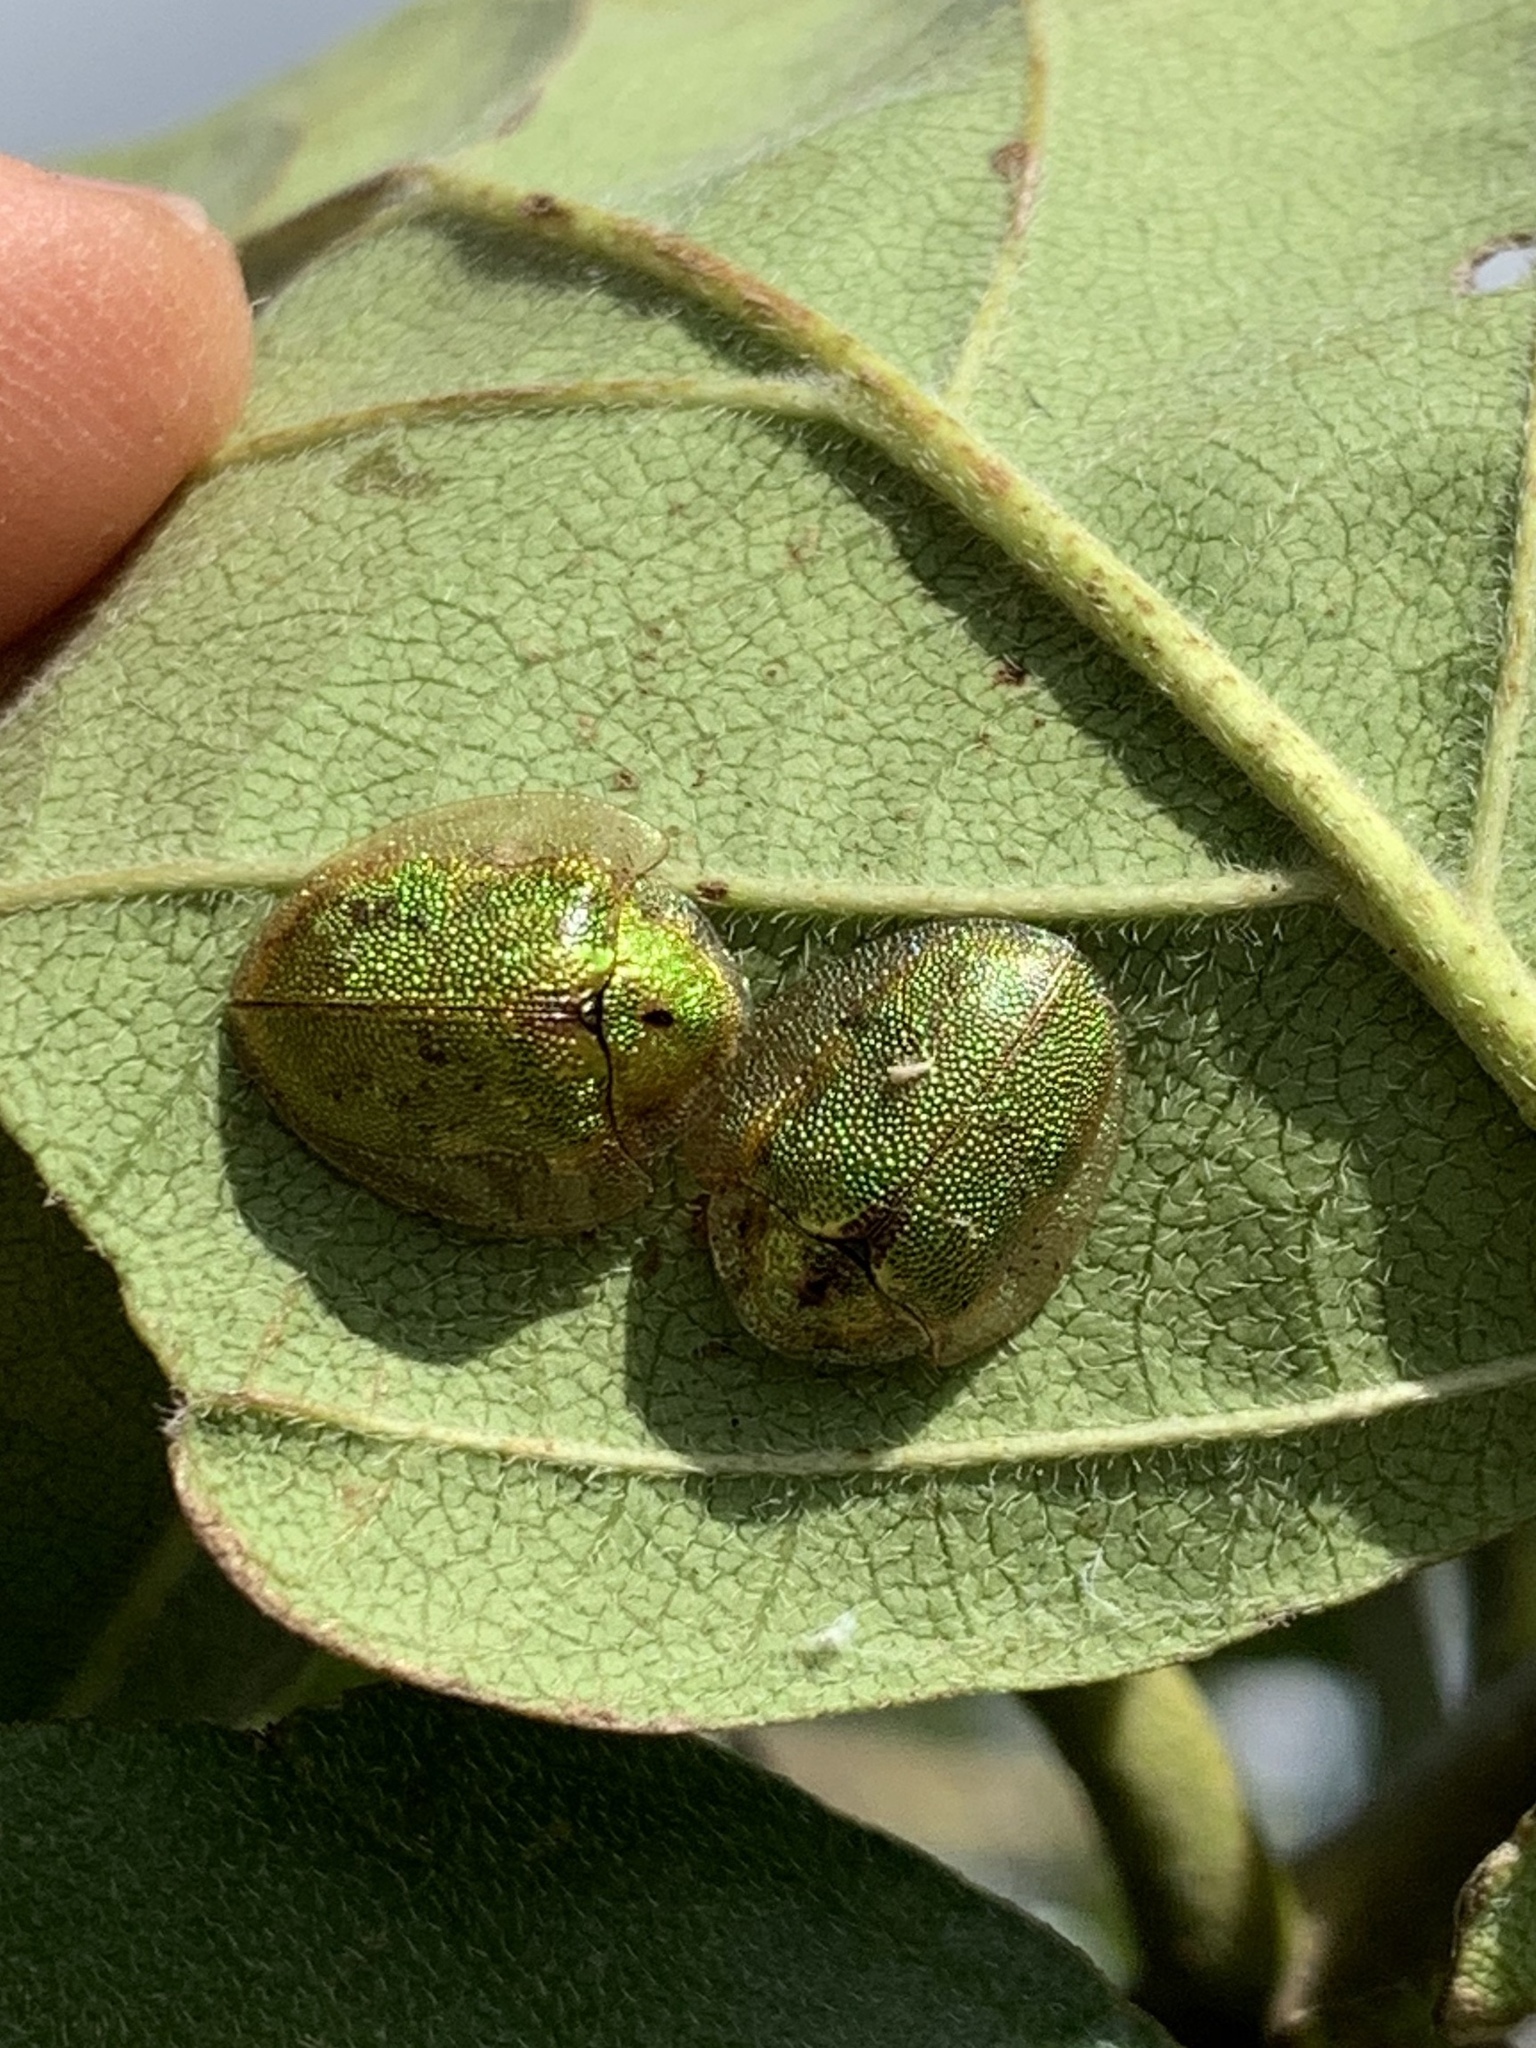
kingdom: Animalia
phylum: Arthropoda
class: Insecta
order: Coleoptera
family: Chrysomelidae
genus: Eurypepla
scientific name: Eurypepla calochroma
